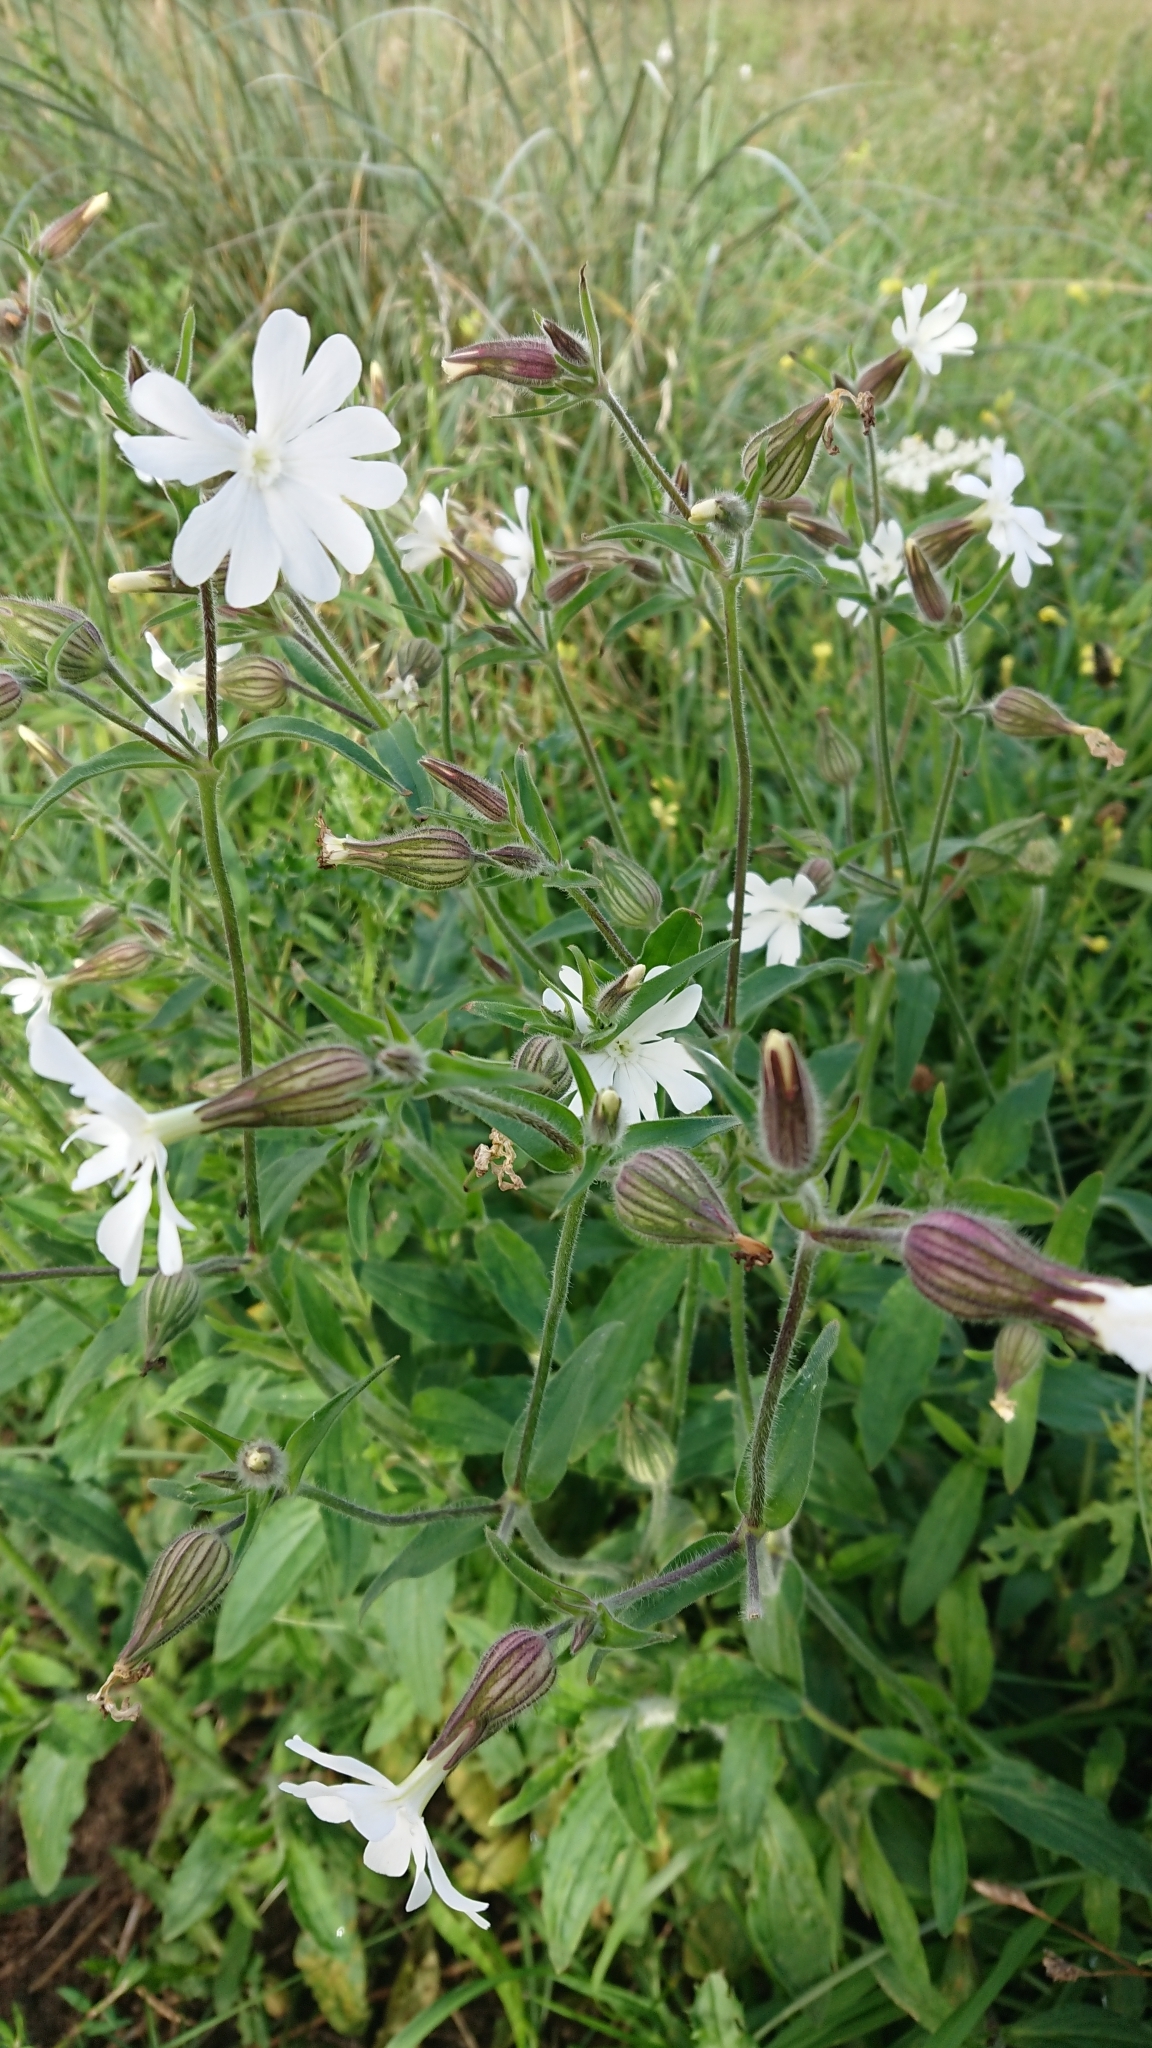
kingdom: Plantae
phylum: Tracheophyta
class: Magnoliopsida
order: Caryophyllales
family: Caryophyllaceae
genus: Silene
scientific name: Silene latifolia
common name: White campion
